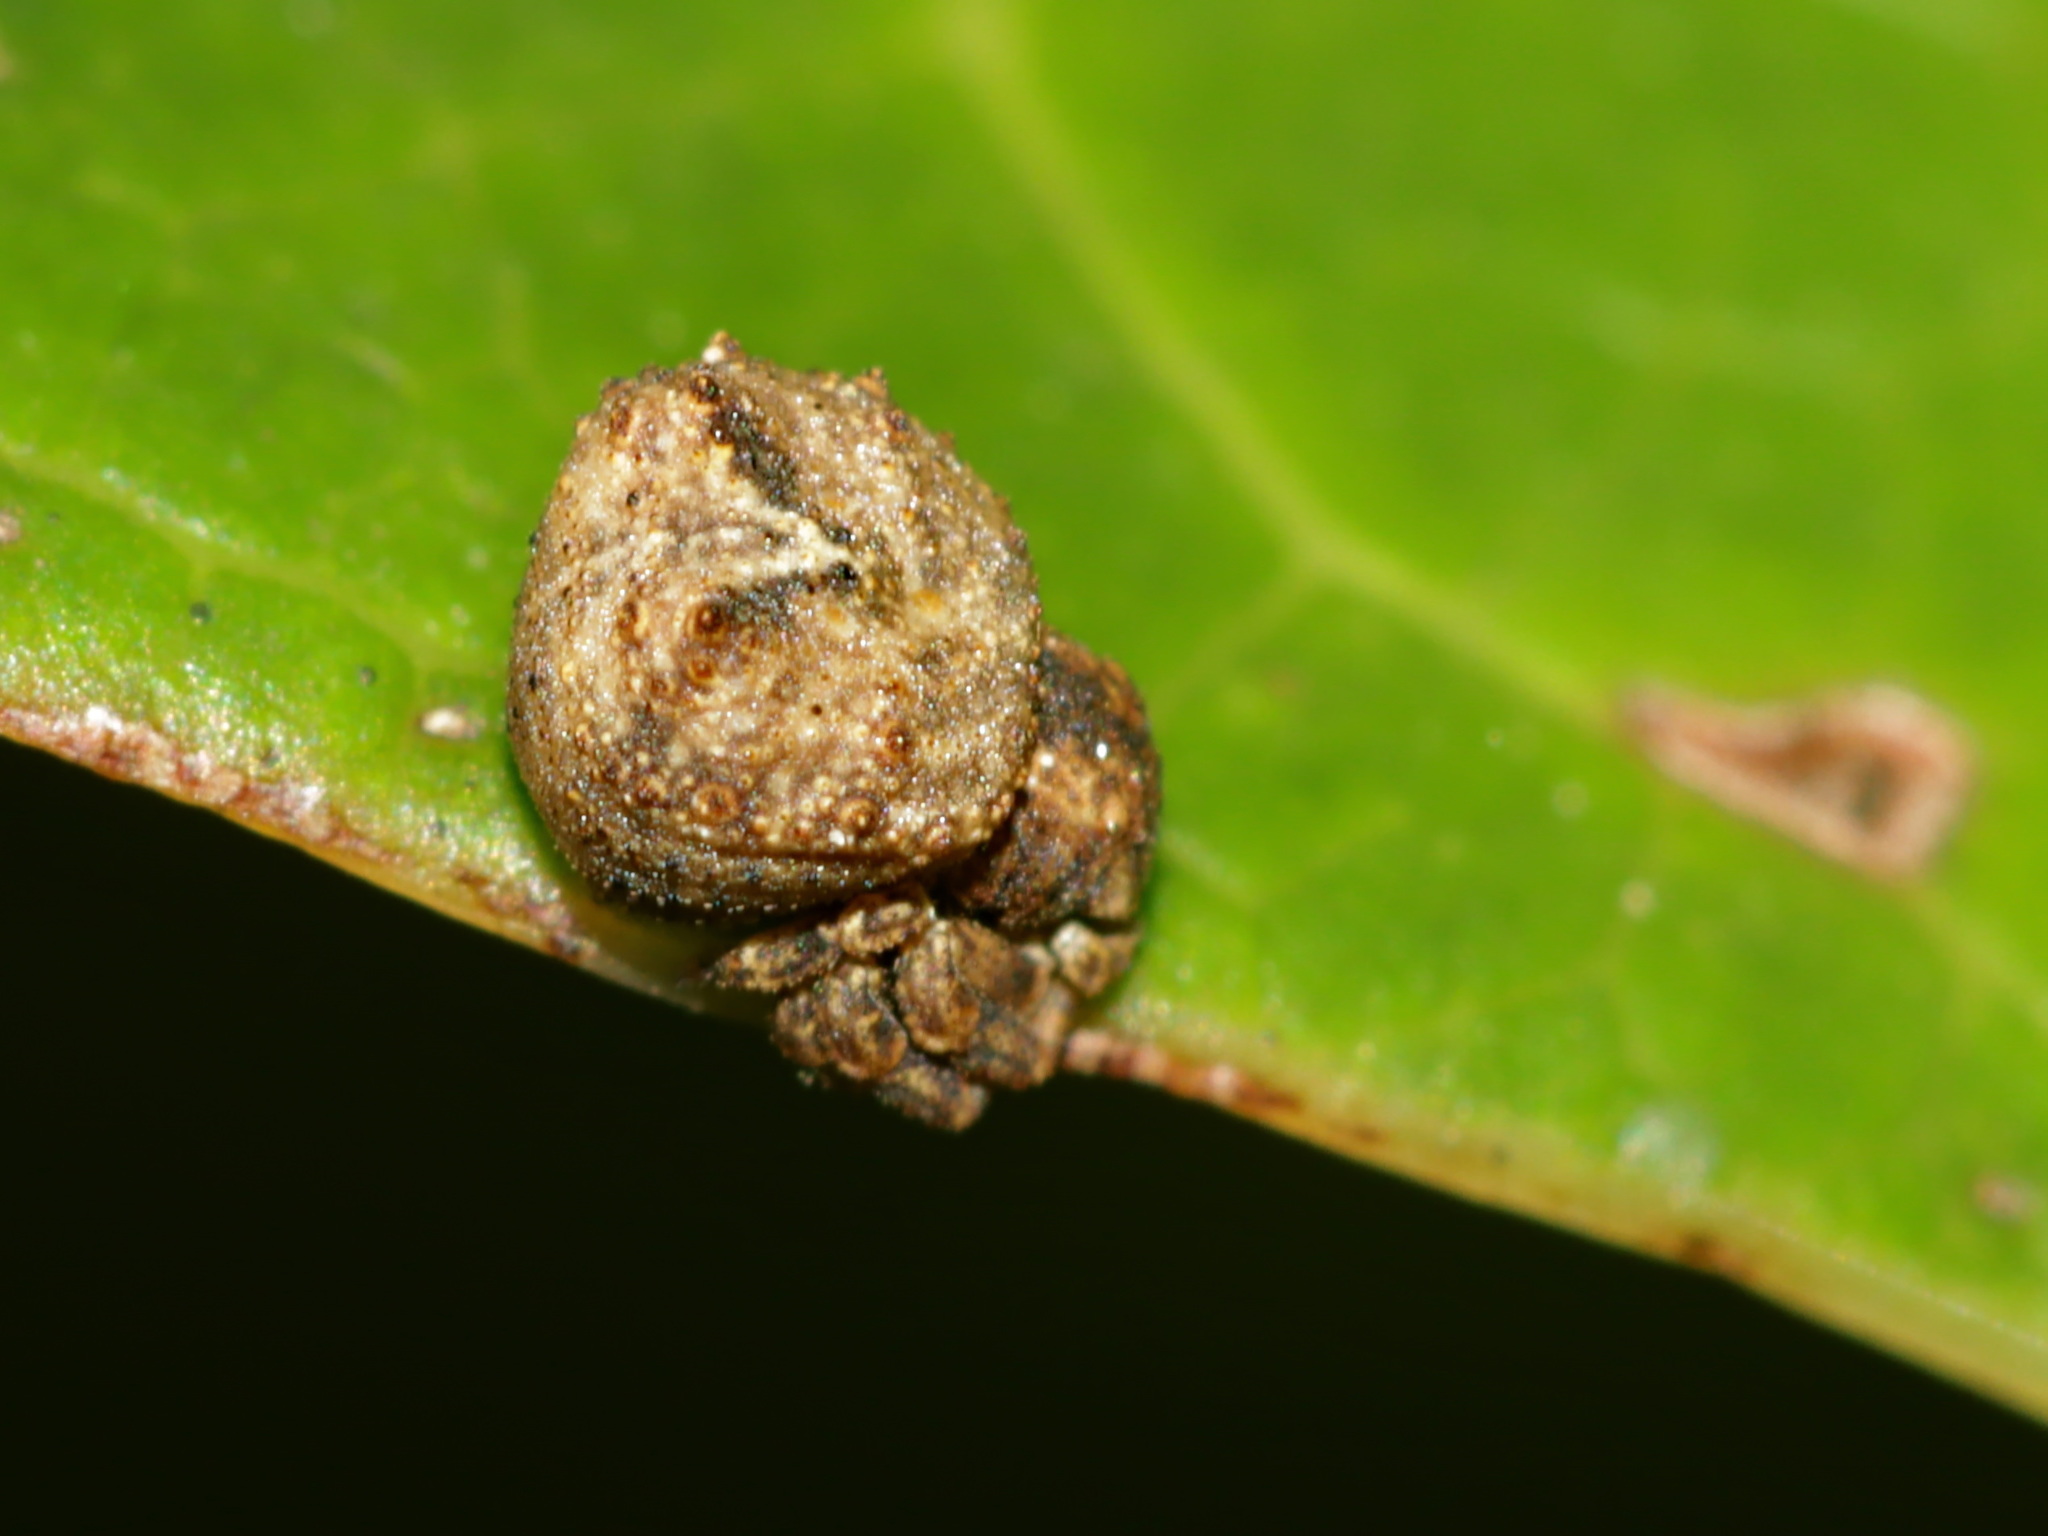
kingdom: Animalia
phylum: Arthropoda
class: Arachnida
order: Araneae
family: Thomisidae
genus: Boliscus
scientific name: Boliscus tuberculatus
